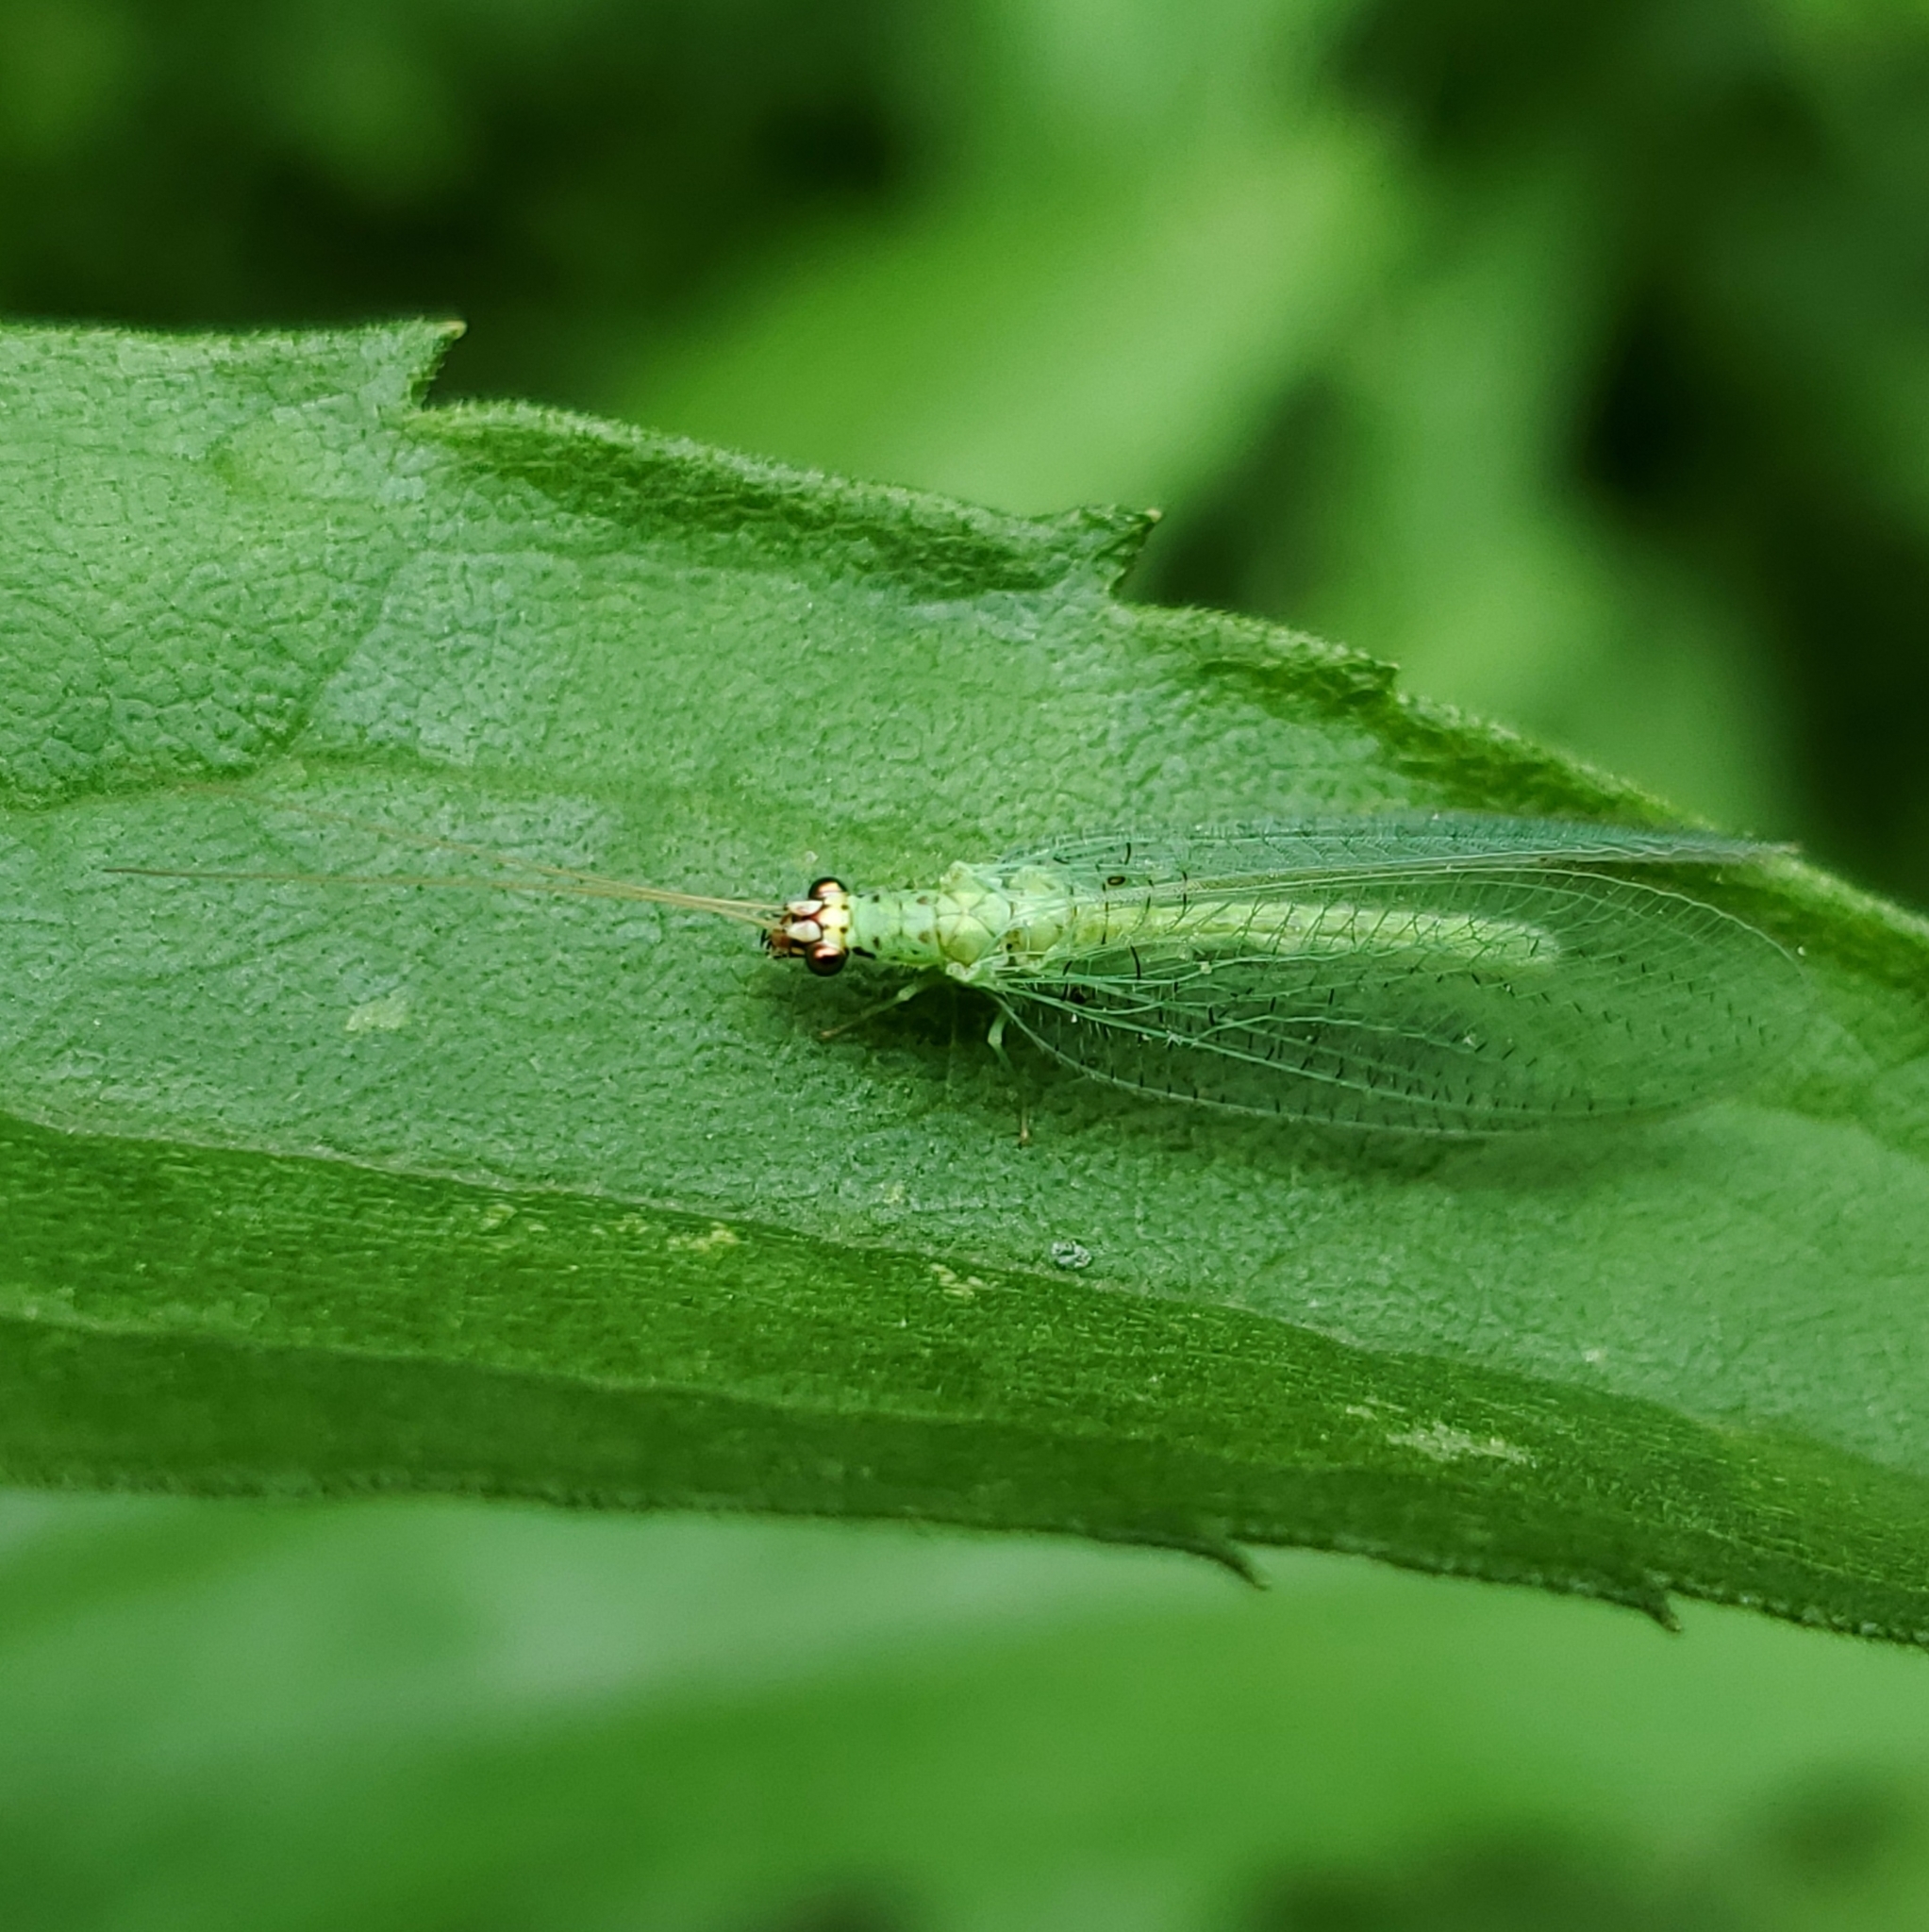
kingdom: Animalia
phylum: Arthropoda
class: Insecta
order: Neuroptera
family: Chrysopidae
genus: Chrysopa
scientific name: Chrysopa oculata
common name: Golden-eyed lacewing
